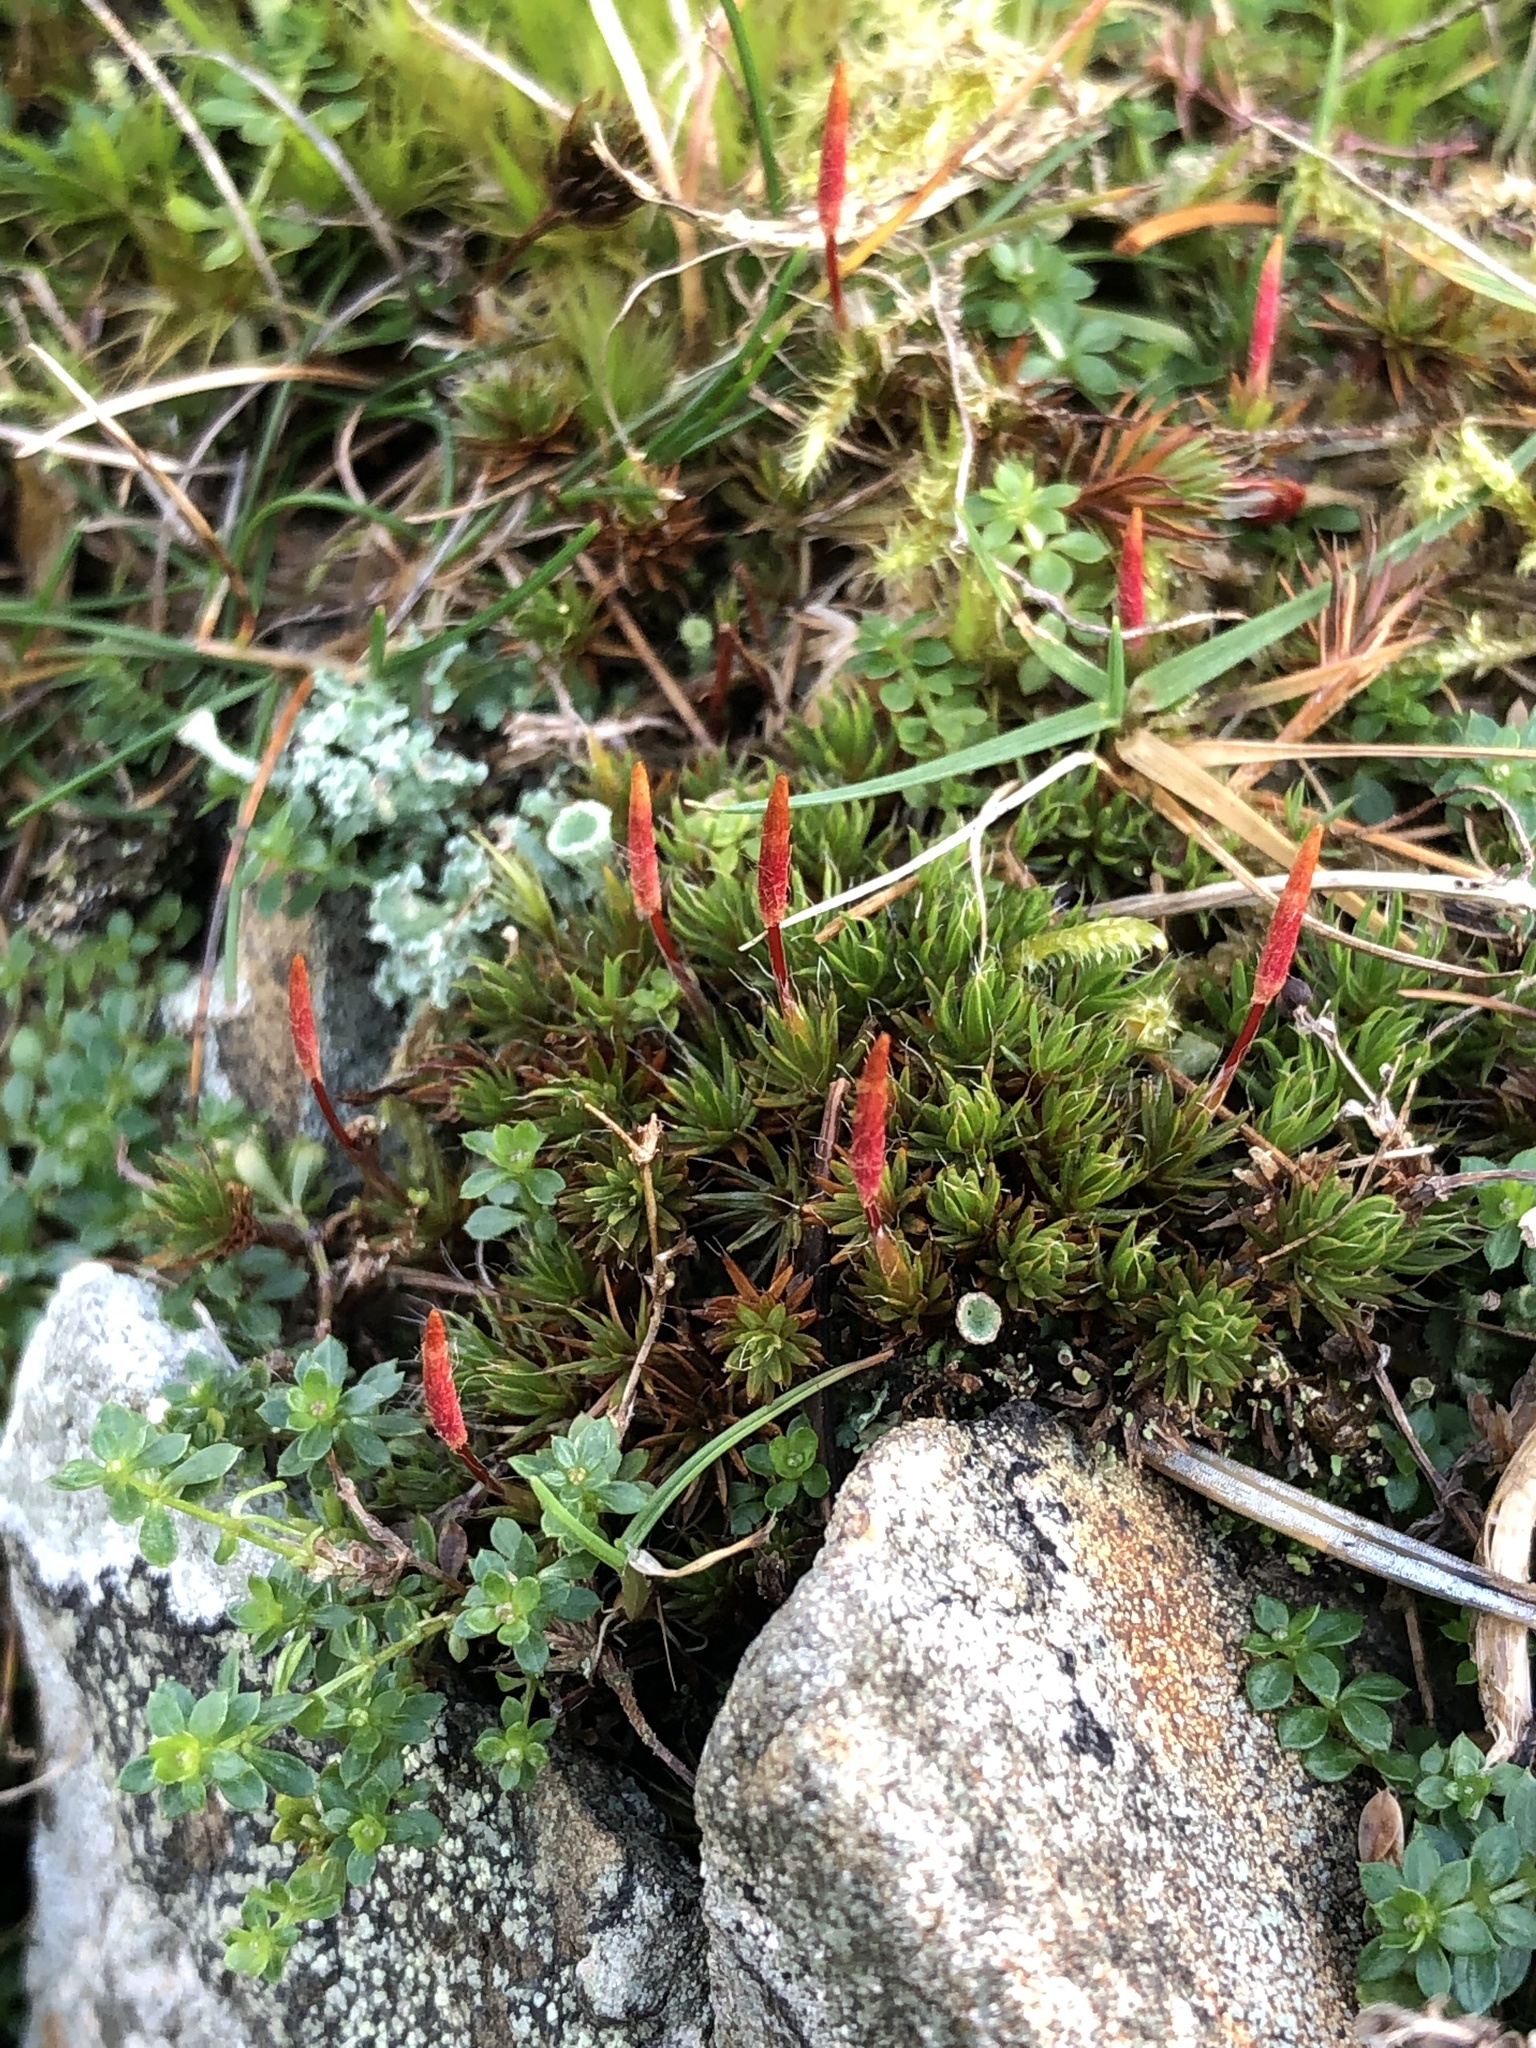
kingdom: Plantae
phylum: Bryophyta
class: Polytrichopsida
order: Polytrichales
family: Polytrichaceae
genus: Polytrichum
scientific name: Polytrichum piliferum
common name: Bristly haircap
